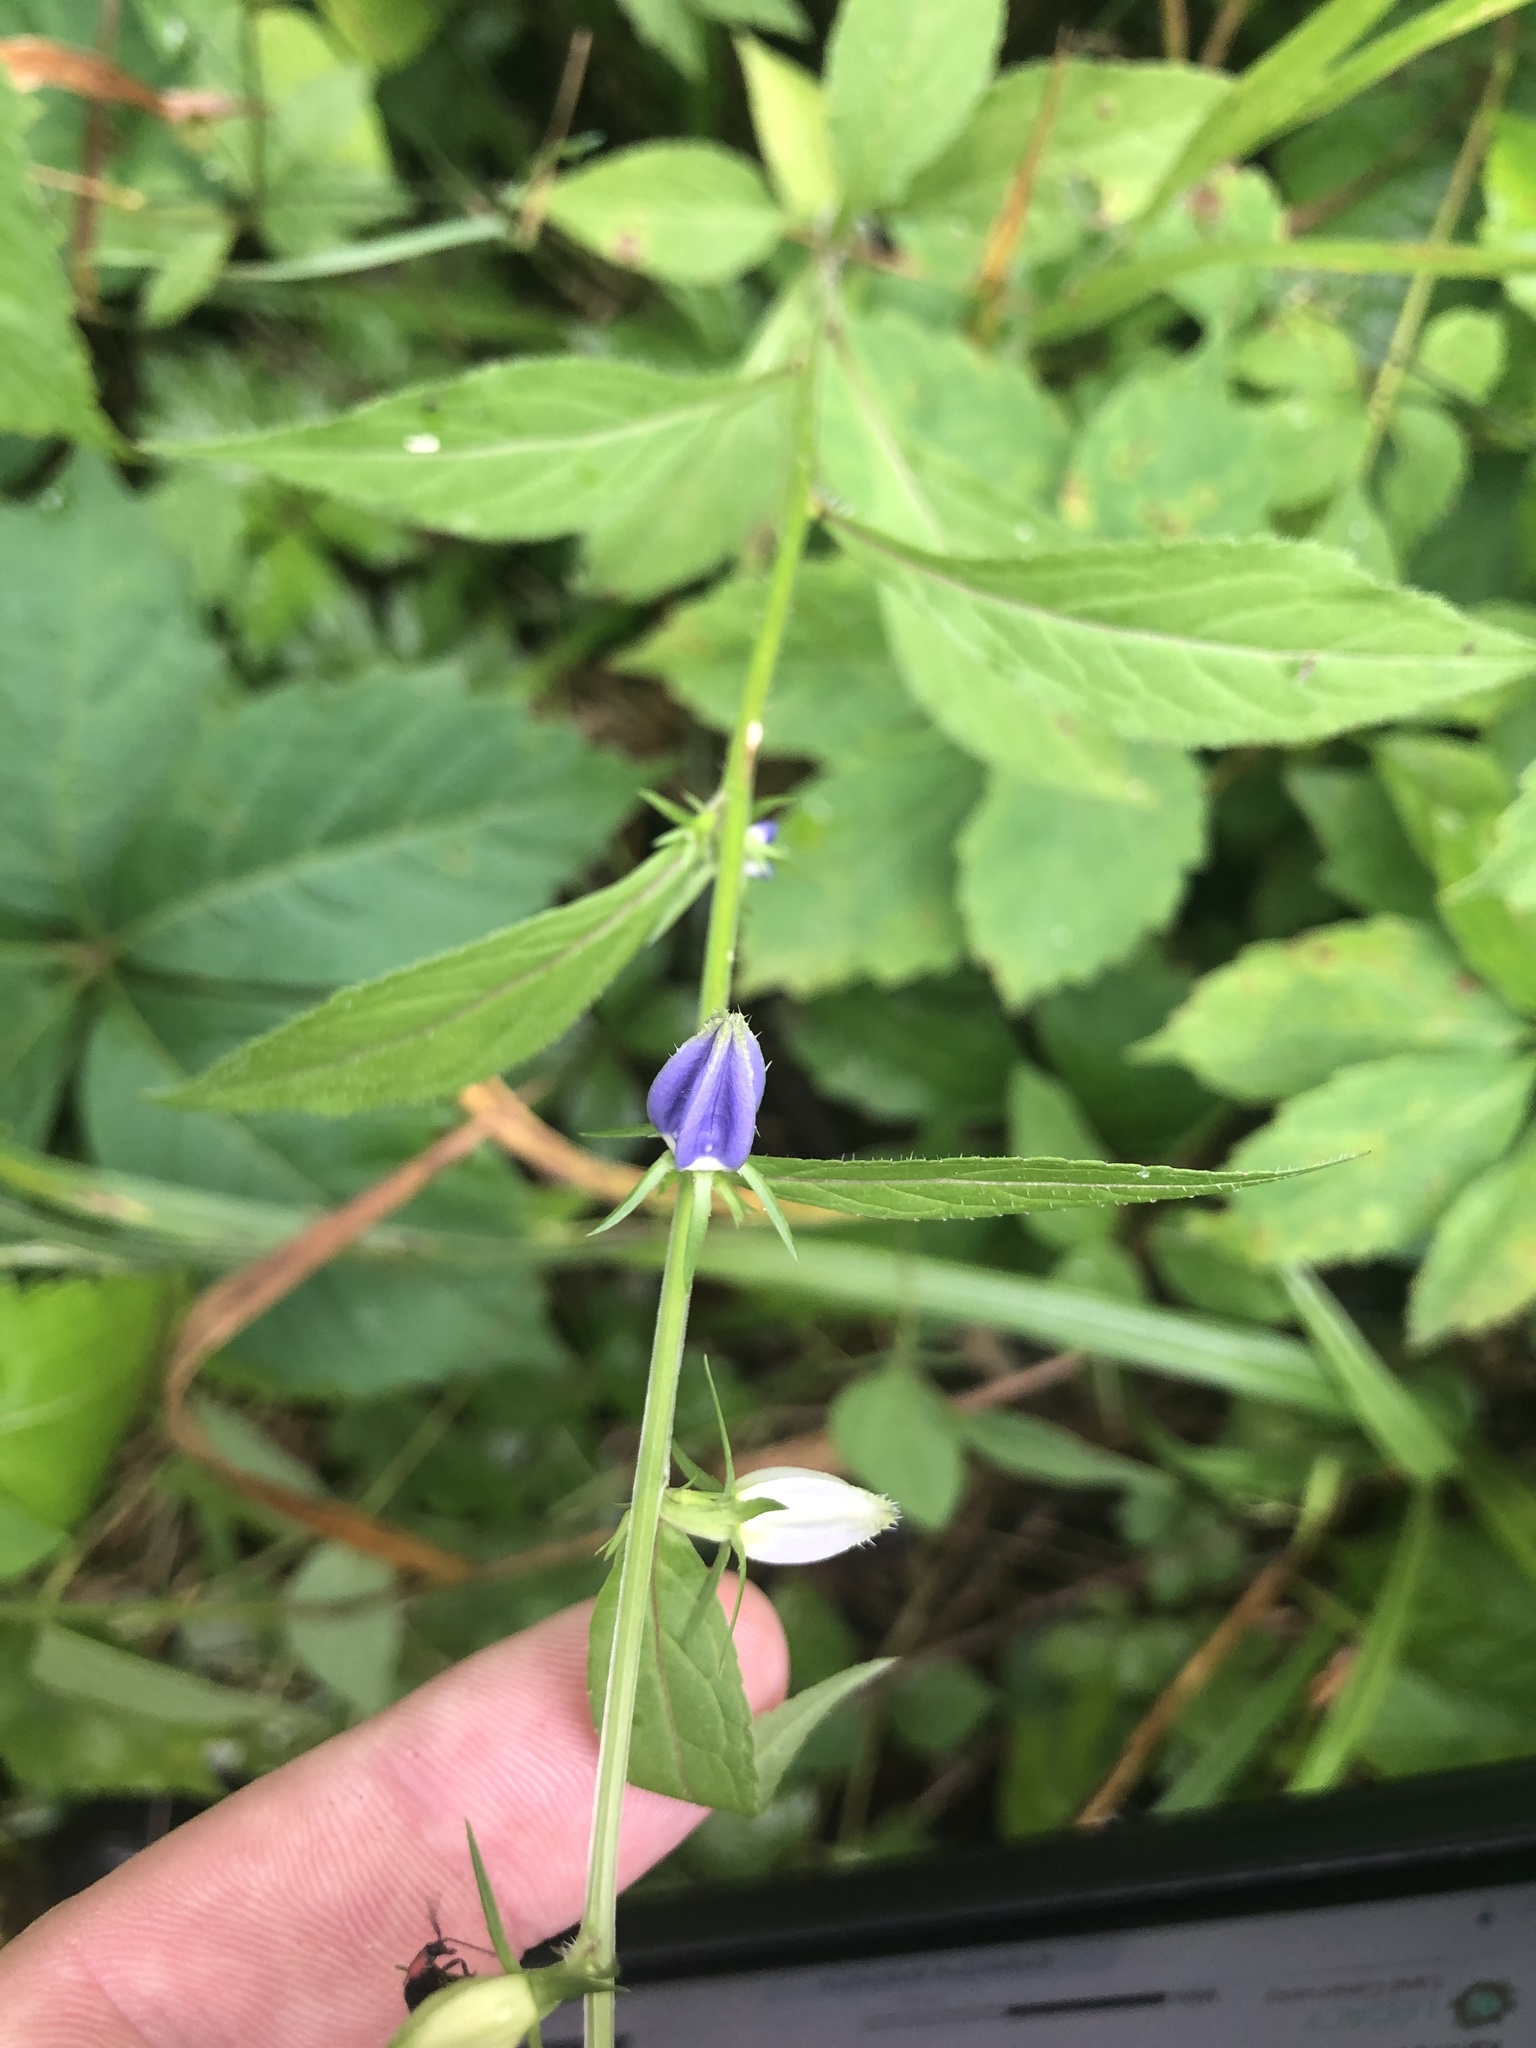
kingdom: Plantae
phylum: Tracheophyta
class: Magnoliopsida
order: Asterales
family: Campanulaceae
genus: Campanulastrum
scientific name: Campanulastrum americanum
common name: American bellflower
